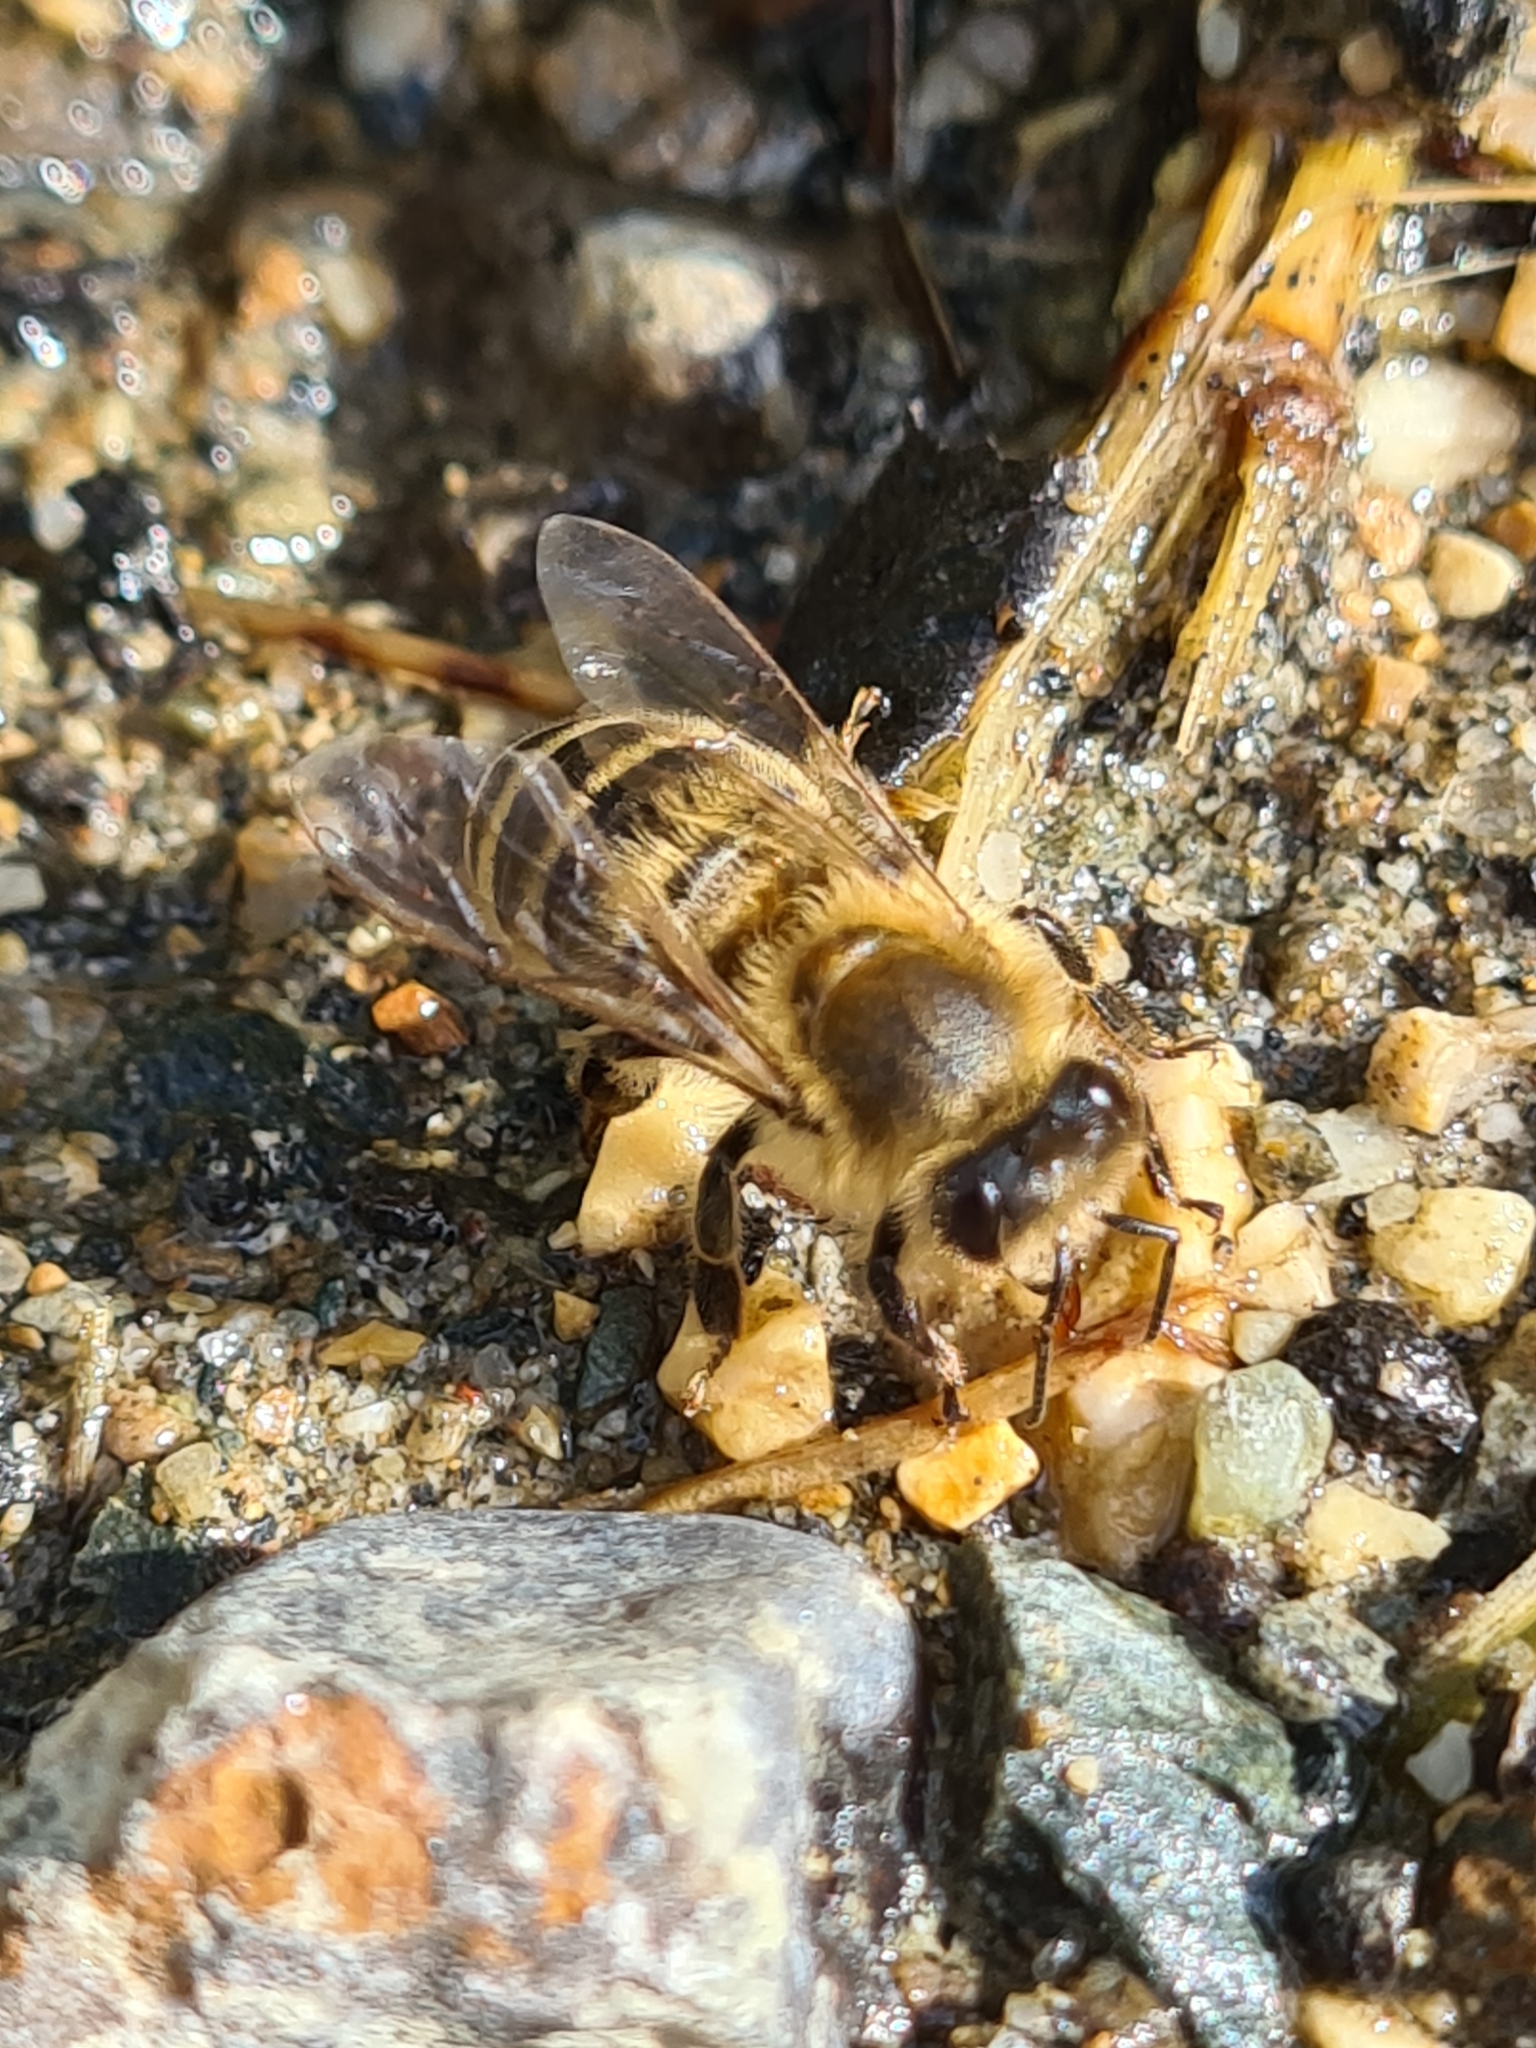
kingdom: Animalia
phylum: Arthropoda
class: Insecta
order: Hymenoptera
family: Apidae
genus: Apis
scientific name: Apis mellifera
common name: Honey bee
